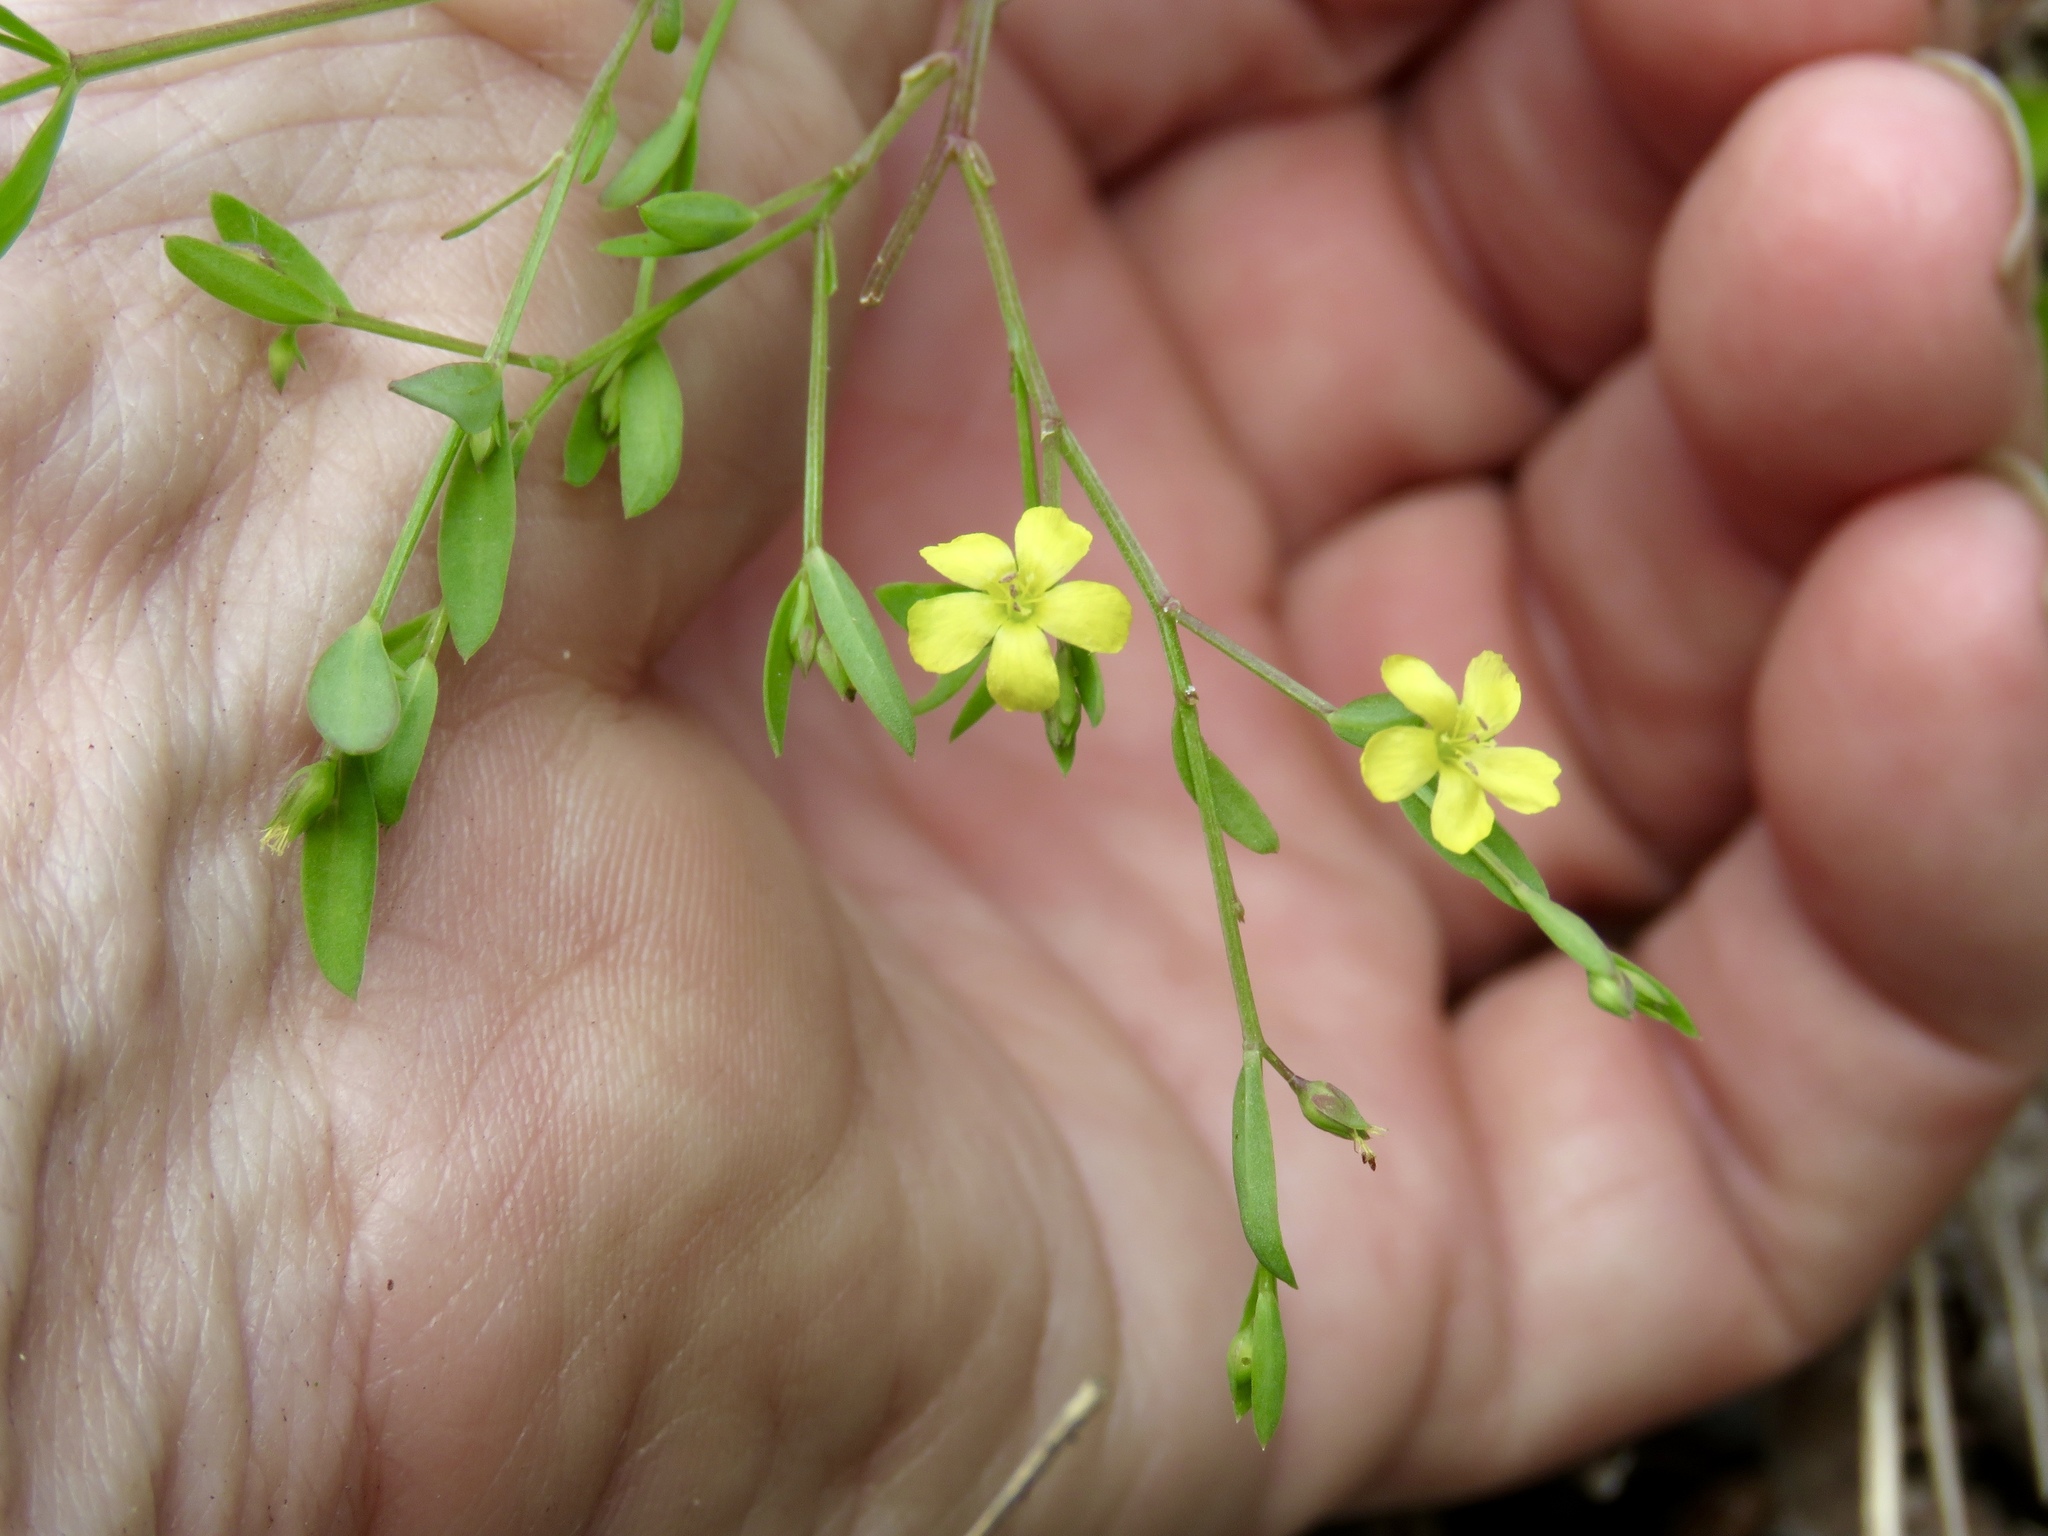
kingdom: Plantae
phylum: Tracheophyta
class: Magnoliopsida
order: Malpighiales
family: Linaceae
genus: Linum
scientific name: Linum striatum
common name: Ridged yellow flax
